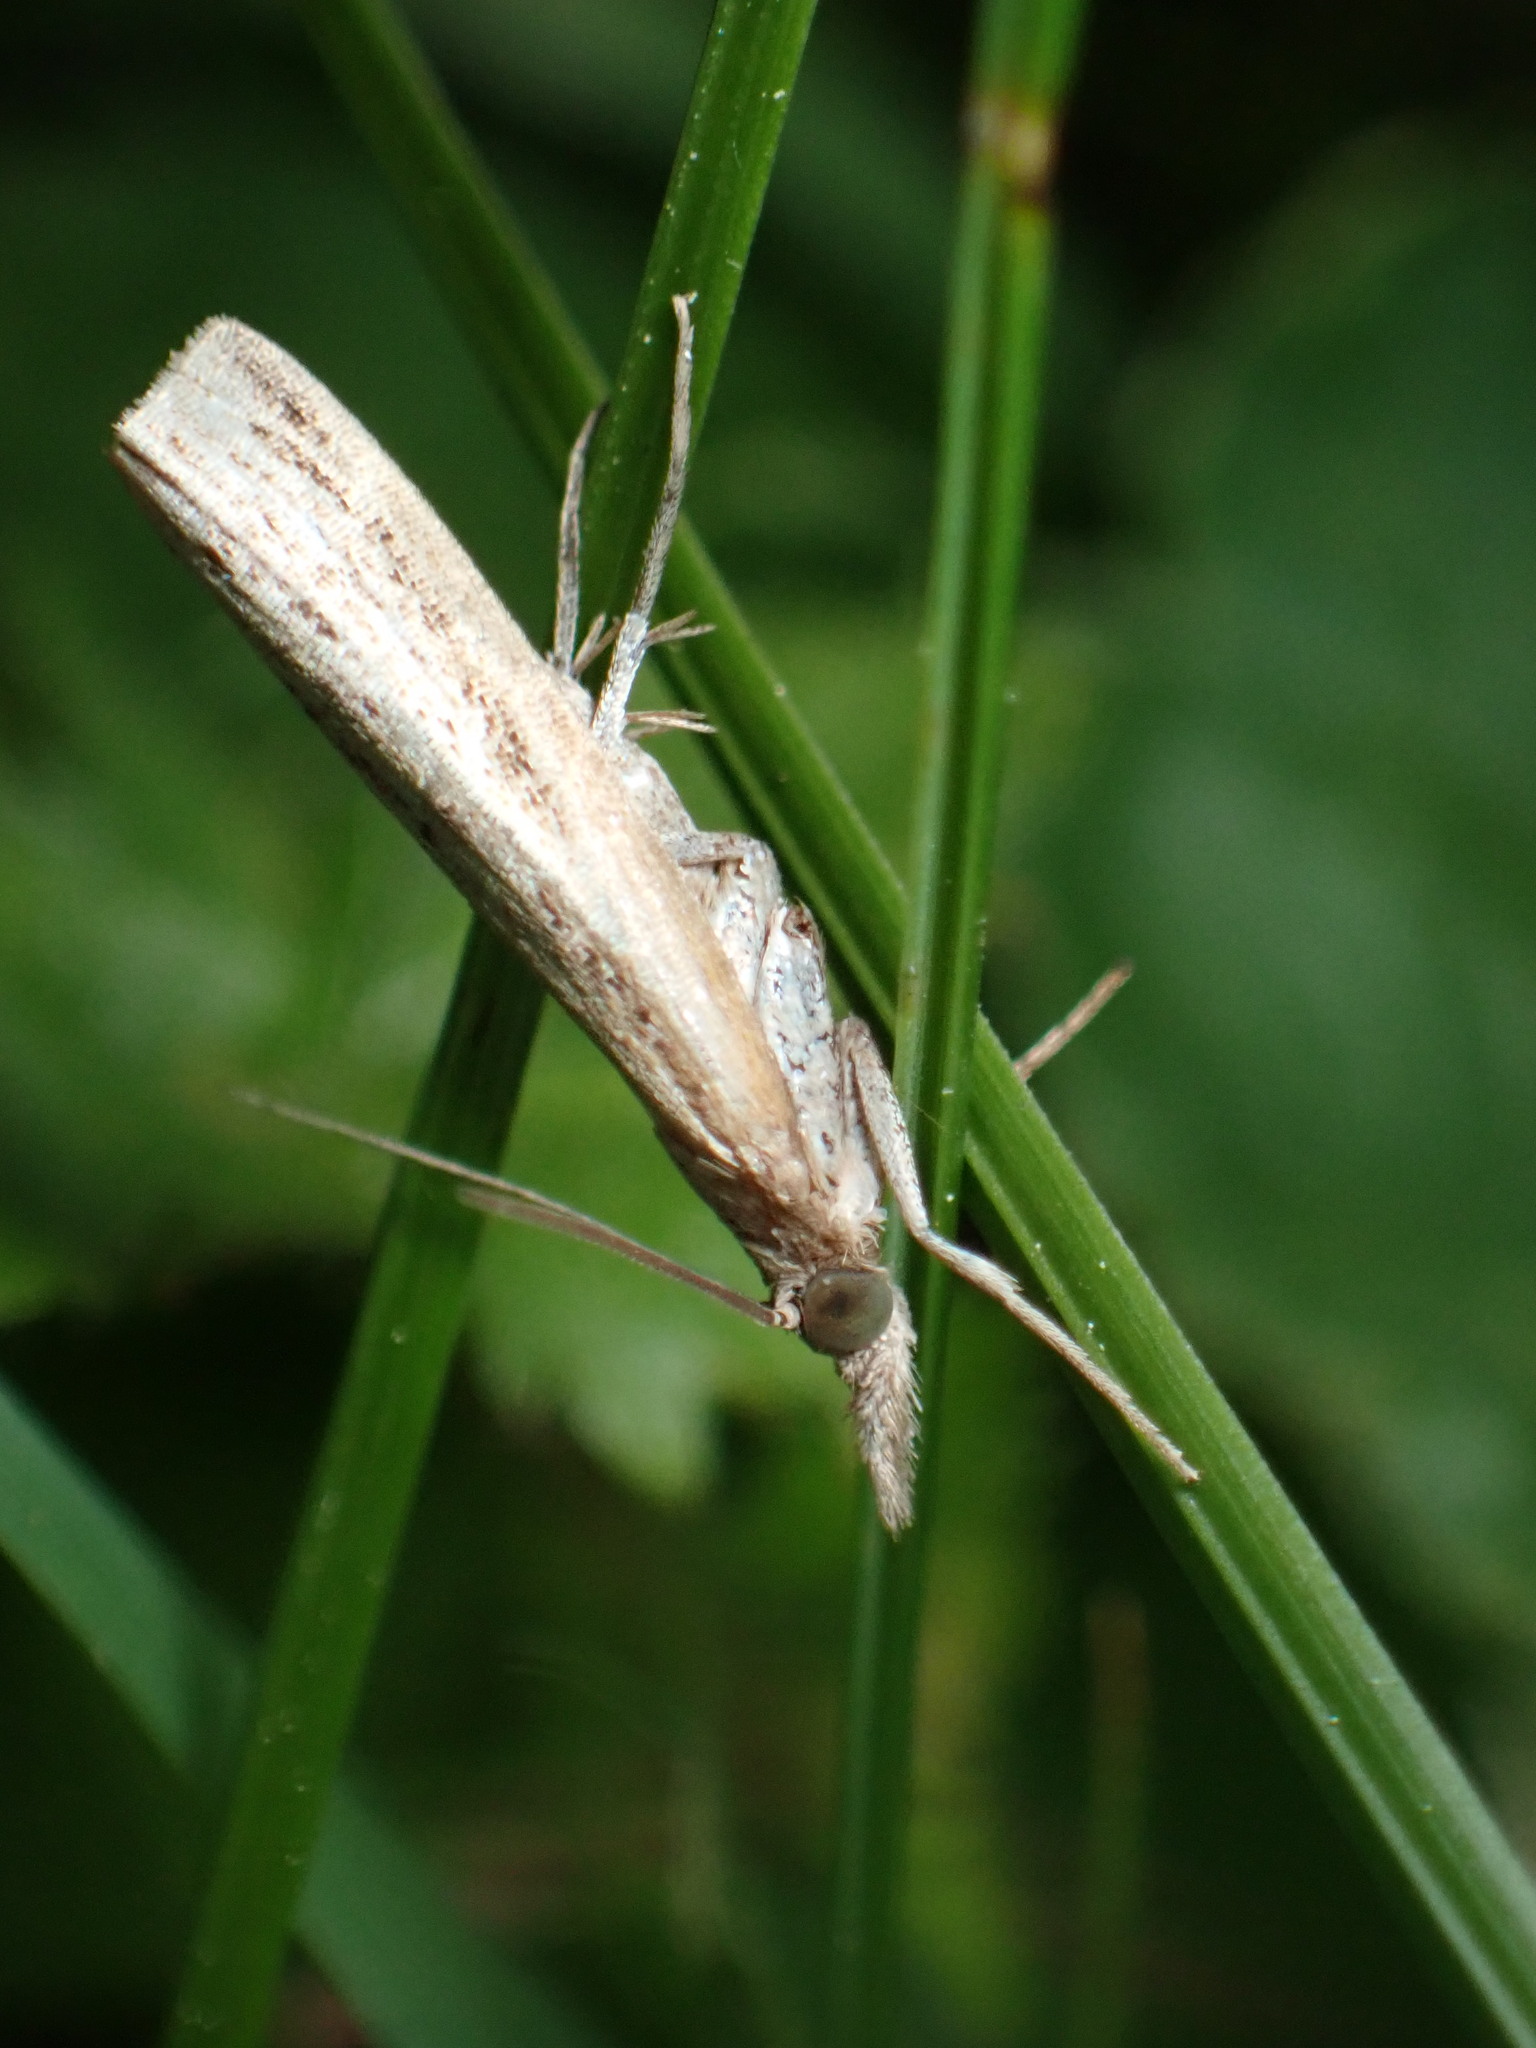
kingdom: Animalia
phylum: Arthropoda
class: Insecta
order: Lepidoptera
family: Crambidae
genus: Fissicrambus
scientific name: Fissicrambus mutabilis
